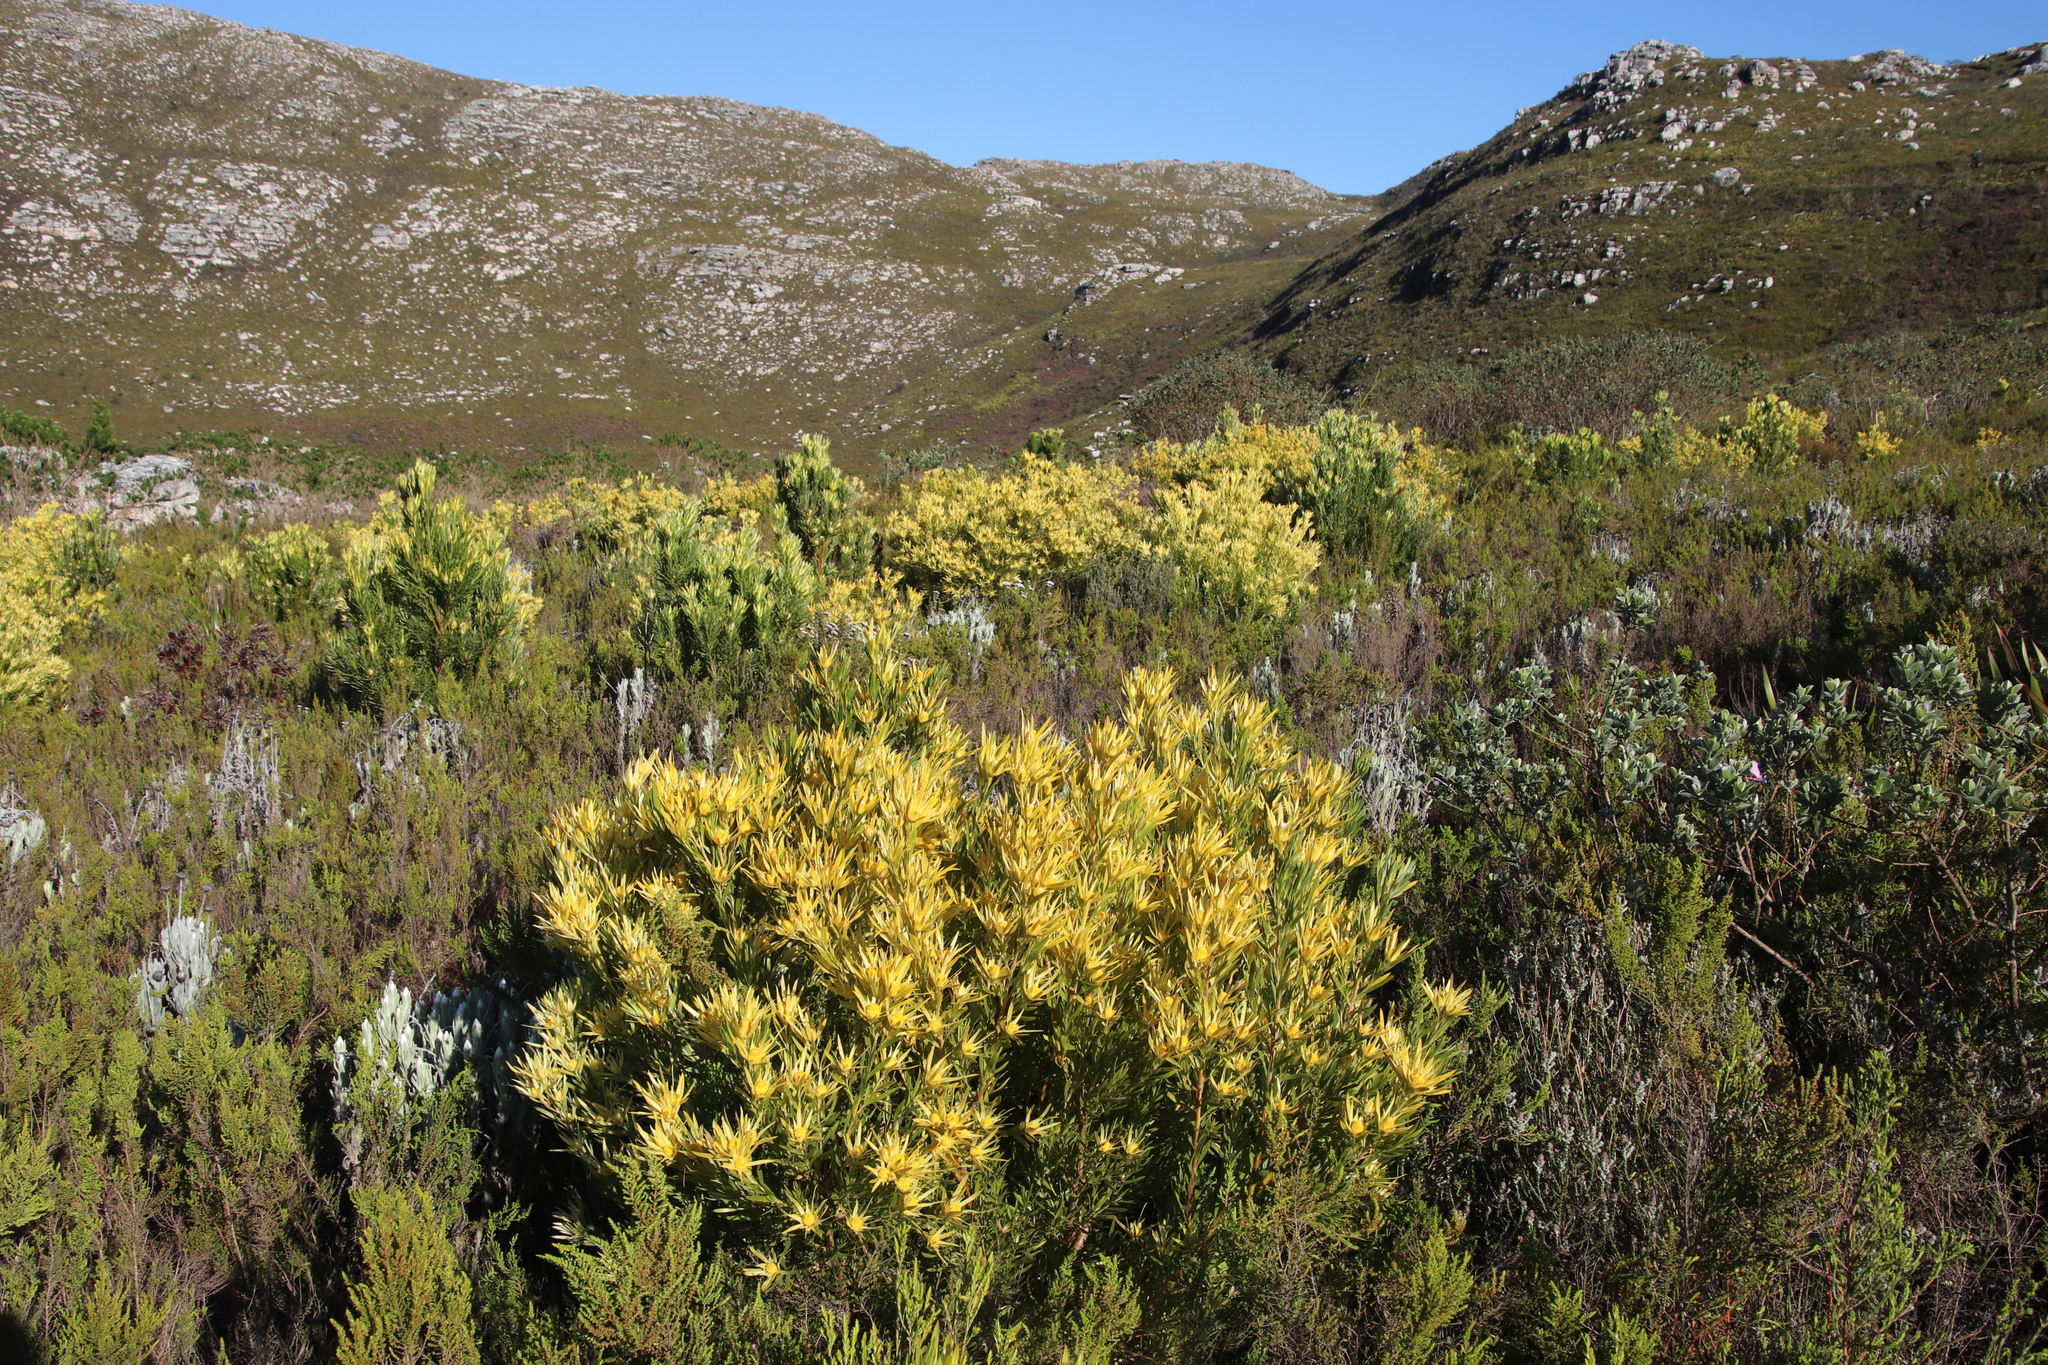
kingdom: Plantae
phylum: Tracheophyta
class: Magnoliopsida
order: Proteales
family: Proteaceae
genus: Leucadendron
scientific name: Leucadendron xanthoconus
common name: Sickle-leaf conebush
